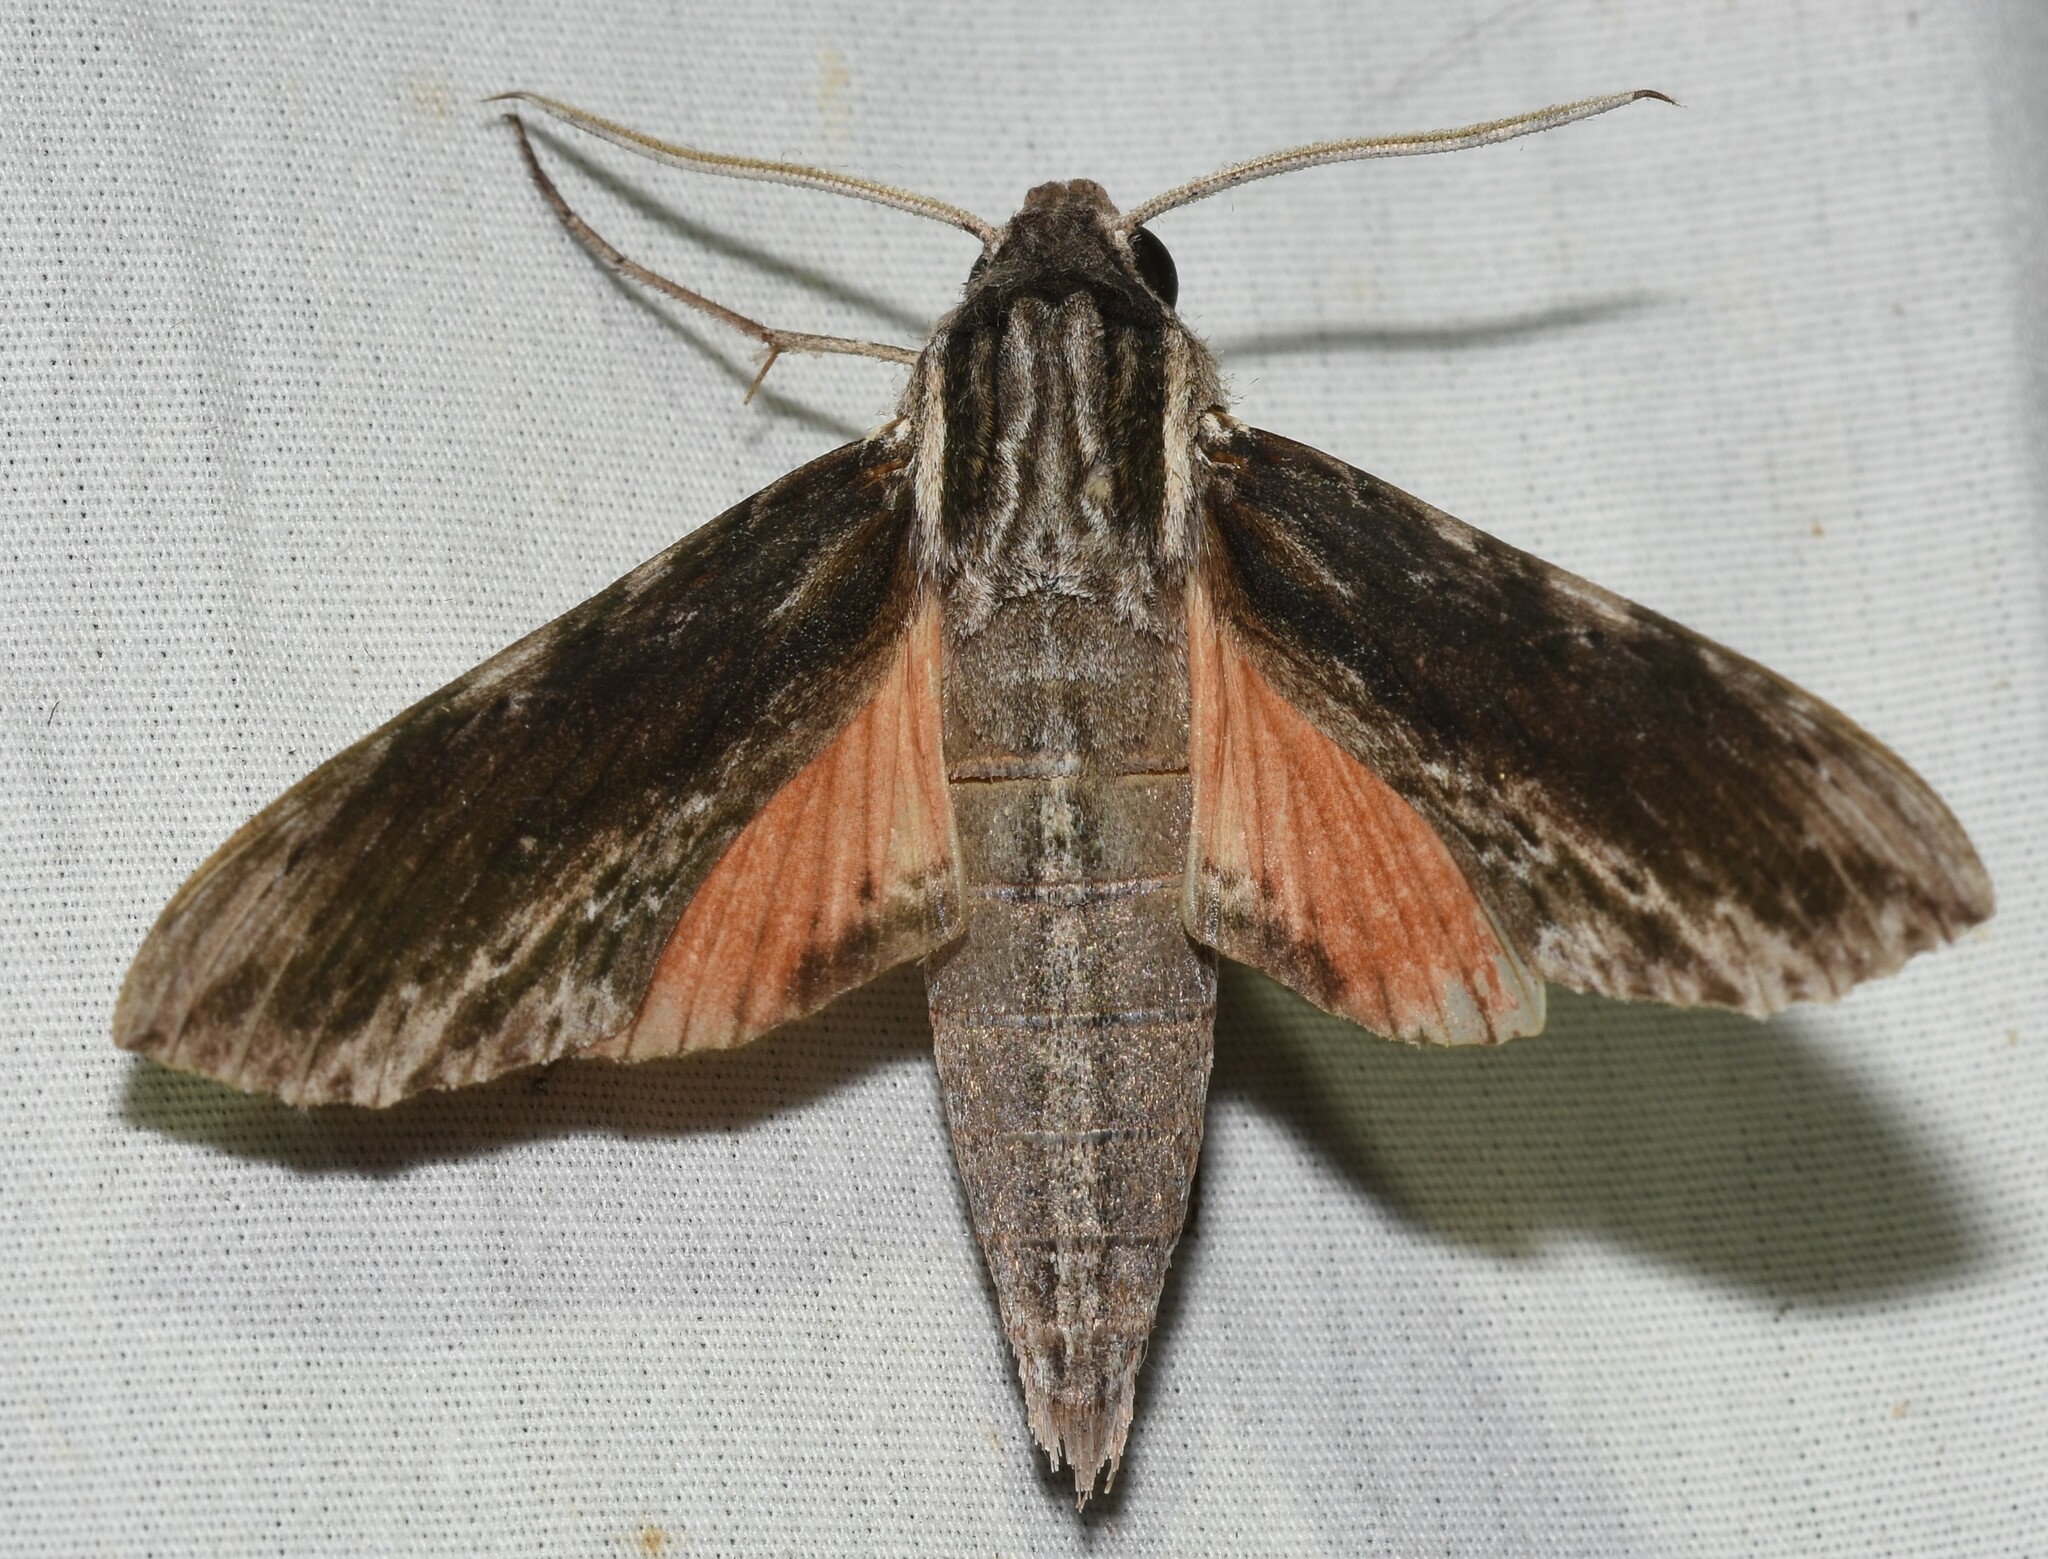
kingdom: Animalia
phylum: Arthropoda
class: Insecta
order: Lepidoptera
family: Sphingidae
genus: Erinnyis
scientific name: Erinnyis obscura
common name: Obscure sphinx
